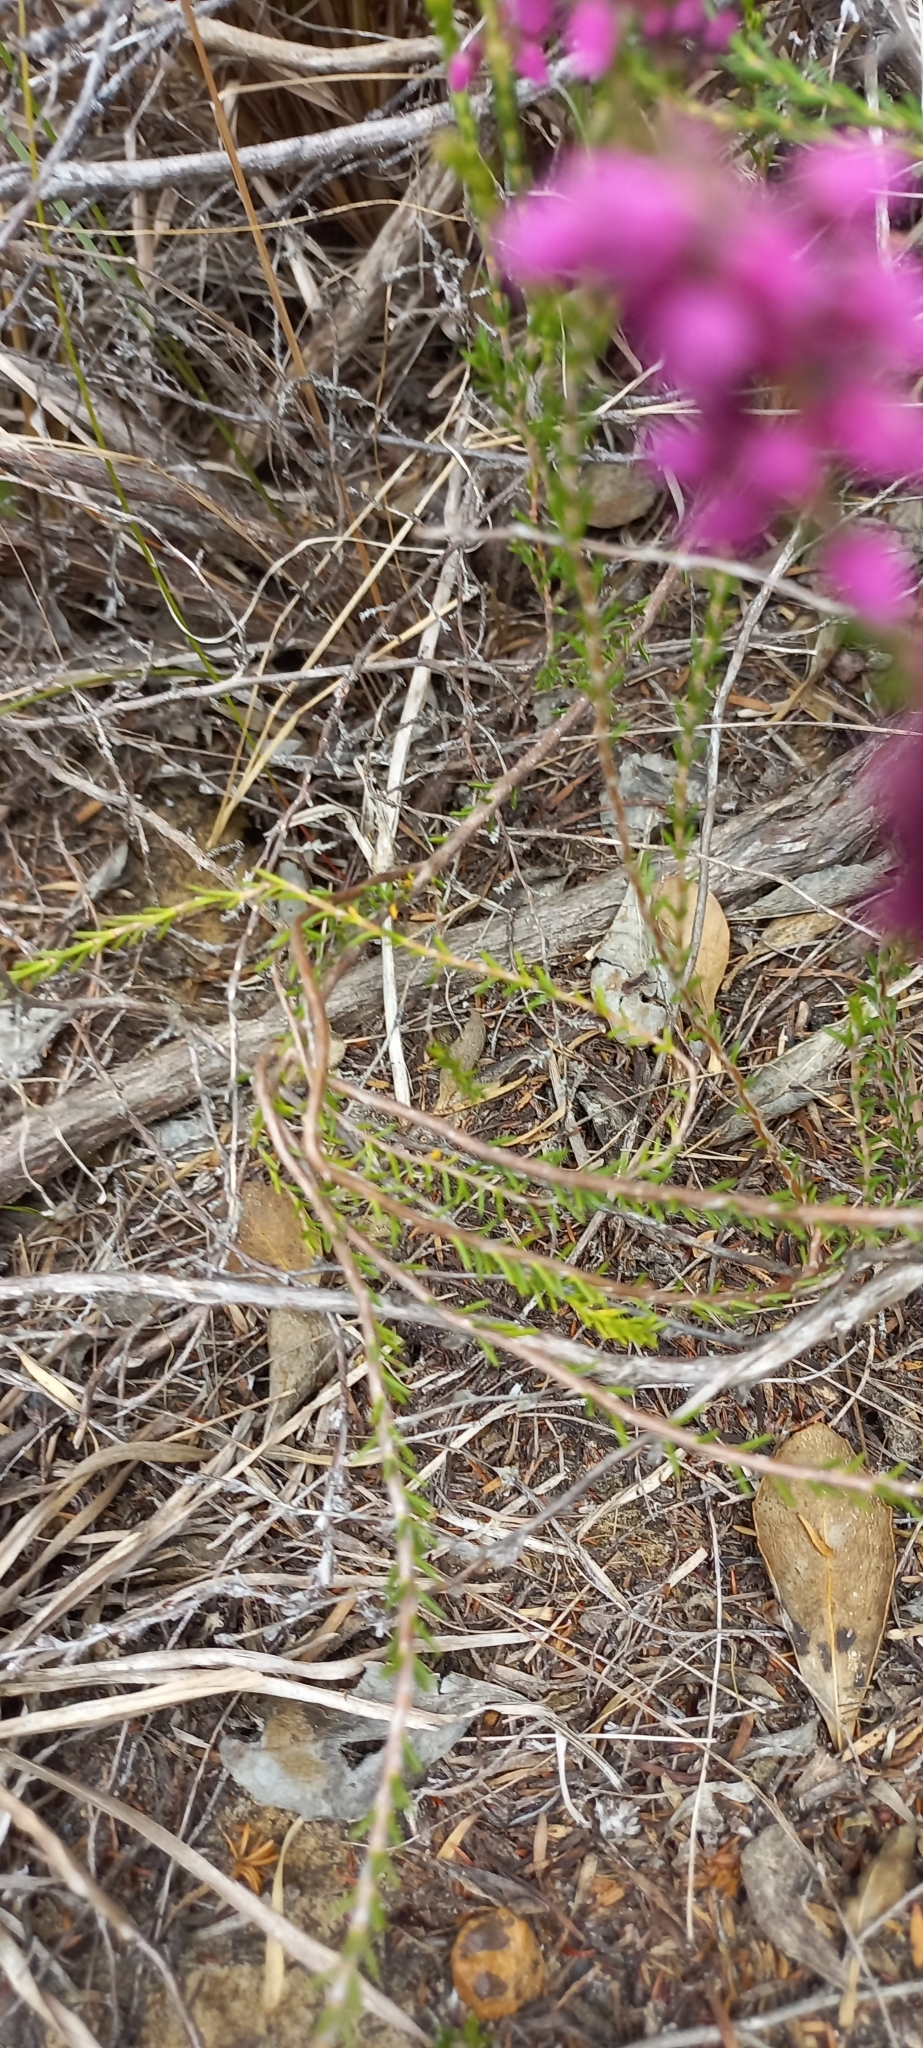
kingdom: Plantae
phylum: Tracheophyta
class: Magnoliopsida
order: Ericales
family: Ericaceae
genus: Erica
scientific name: Erica pulchella
